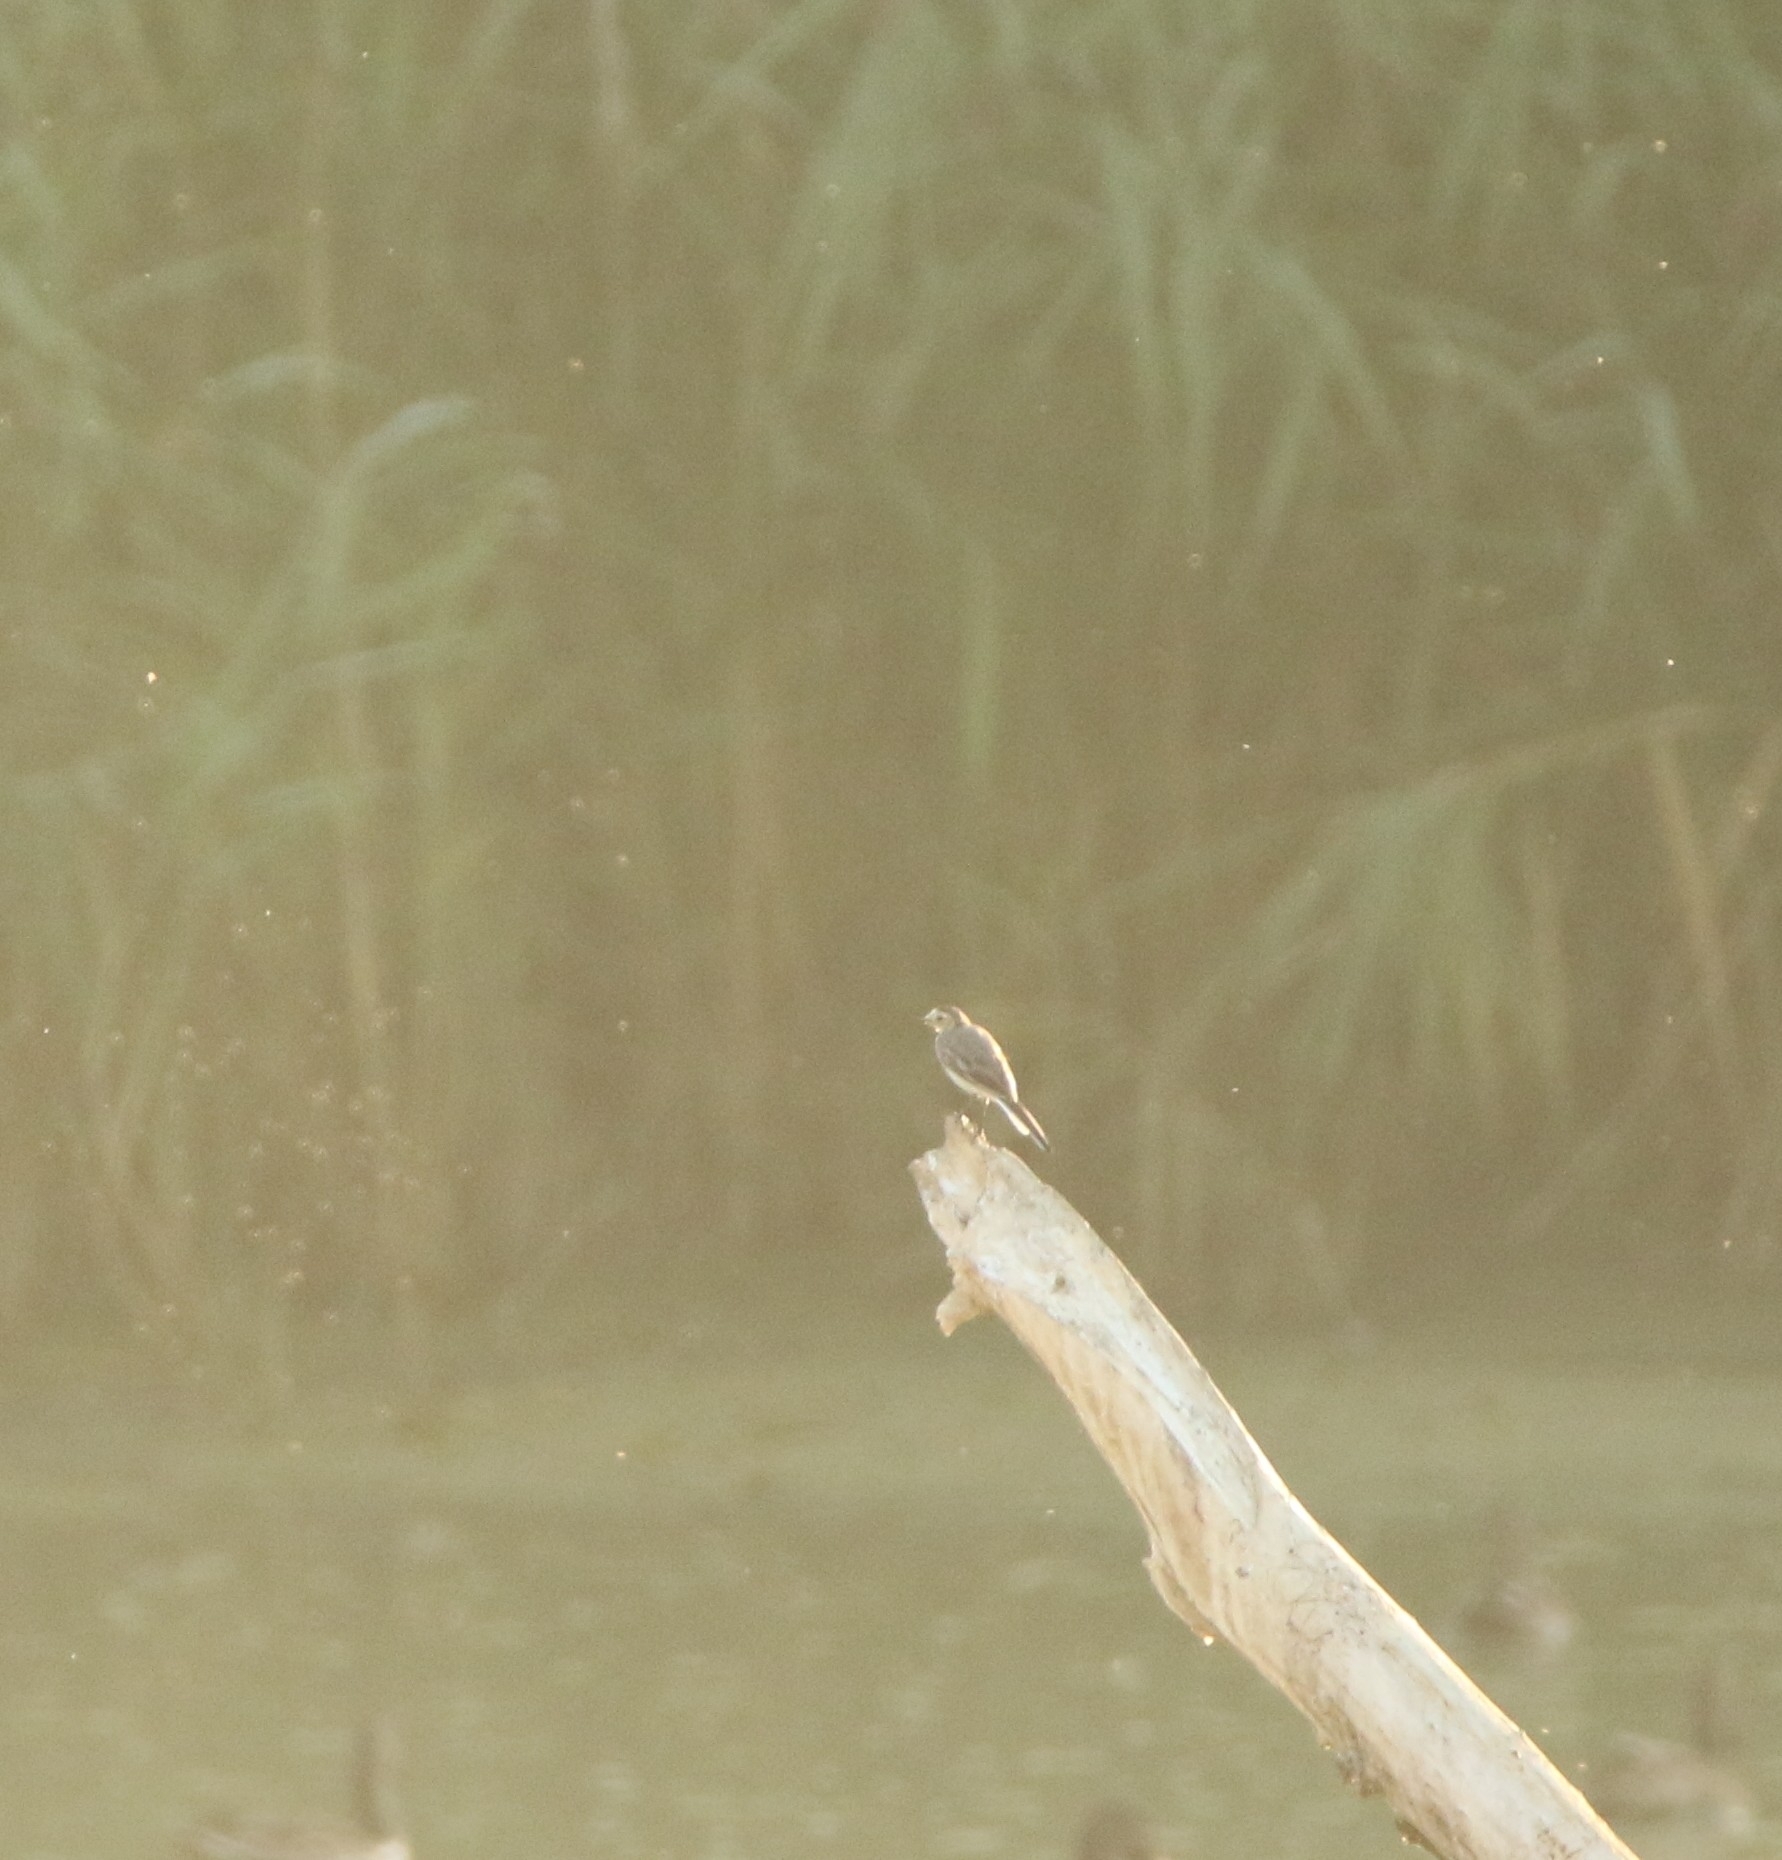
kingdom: Animalia
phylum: Chordata
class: Aves
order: Passeriformes
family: Motacillidae
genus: Motacilla
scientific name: Motacilla alba
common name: White wagtail
